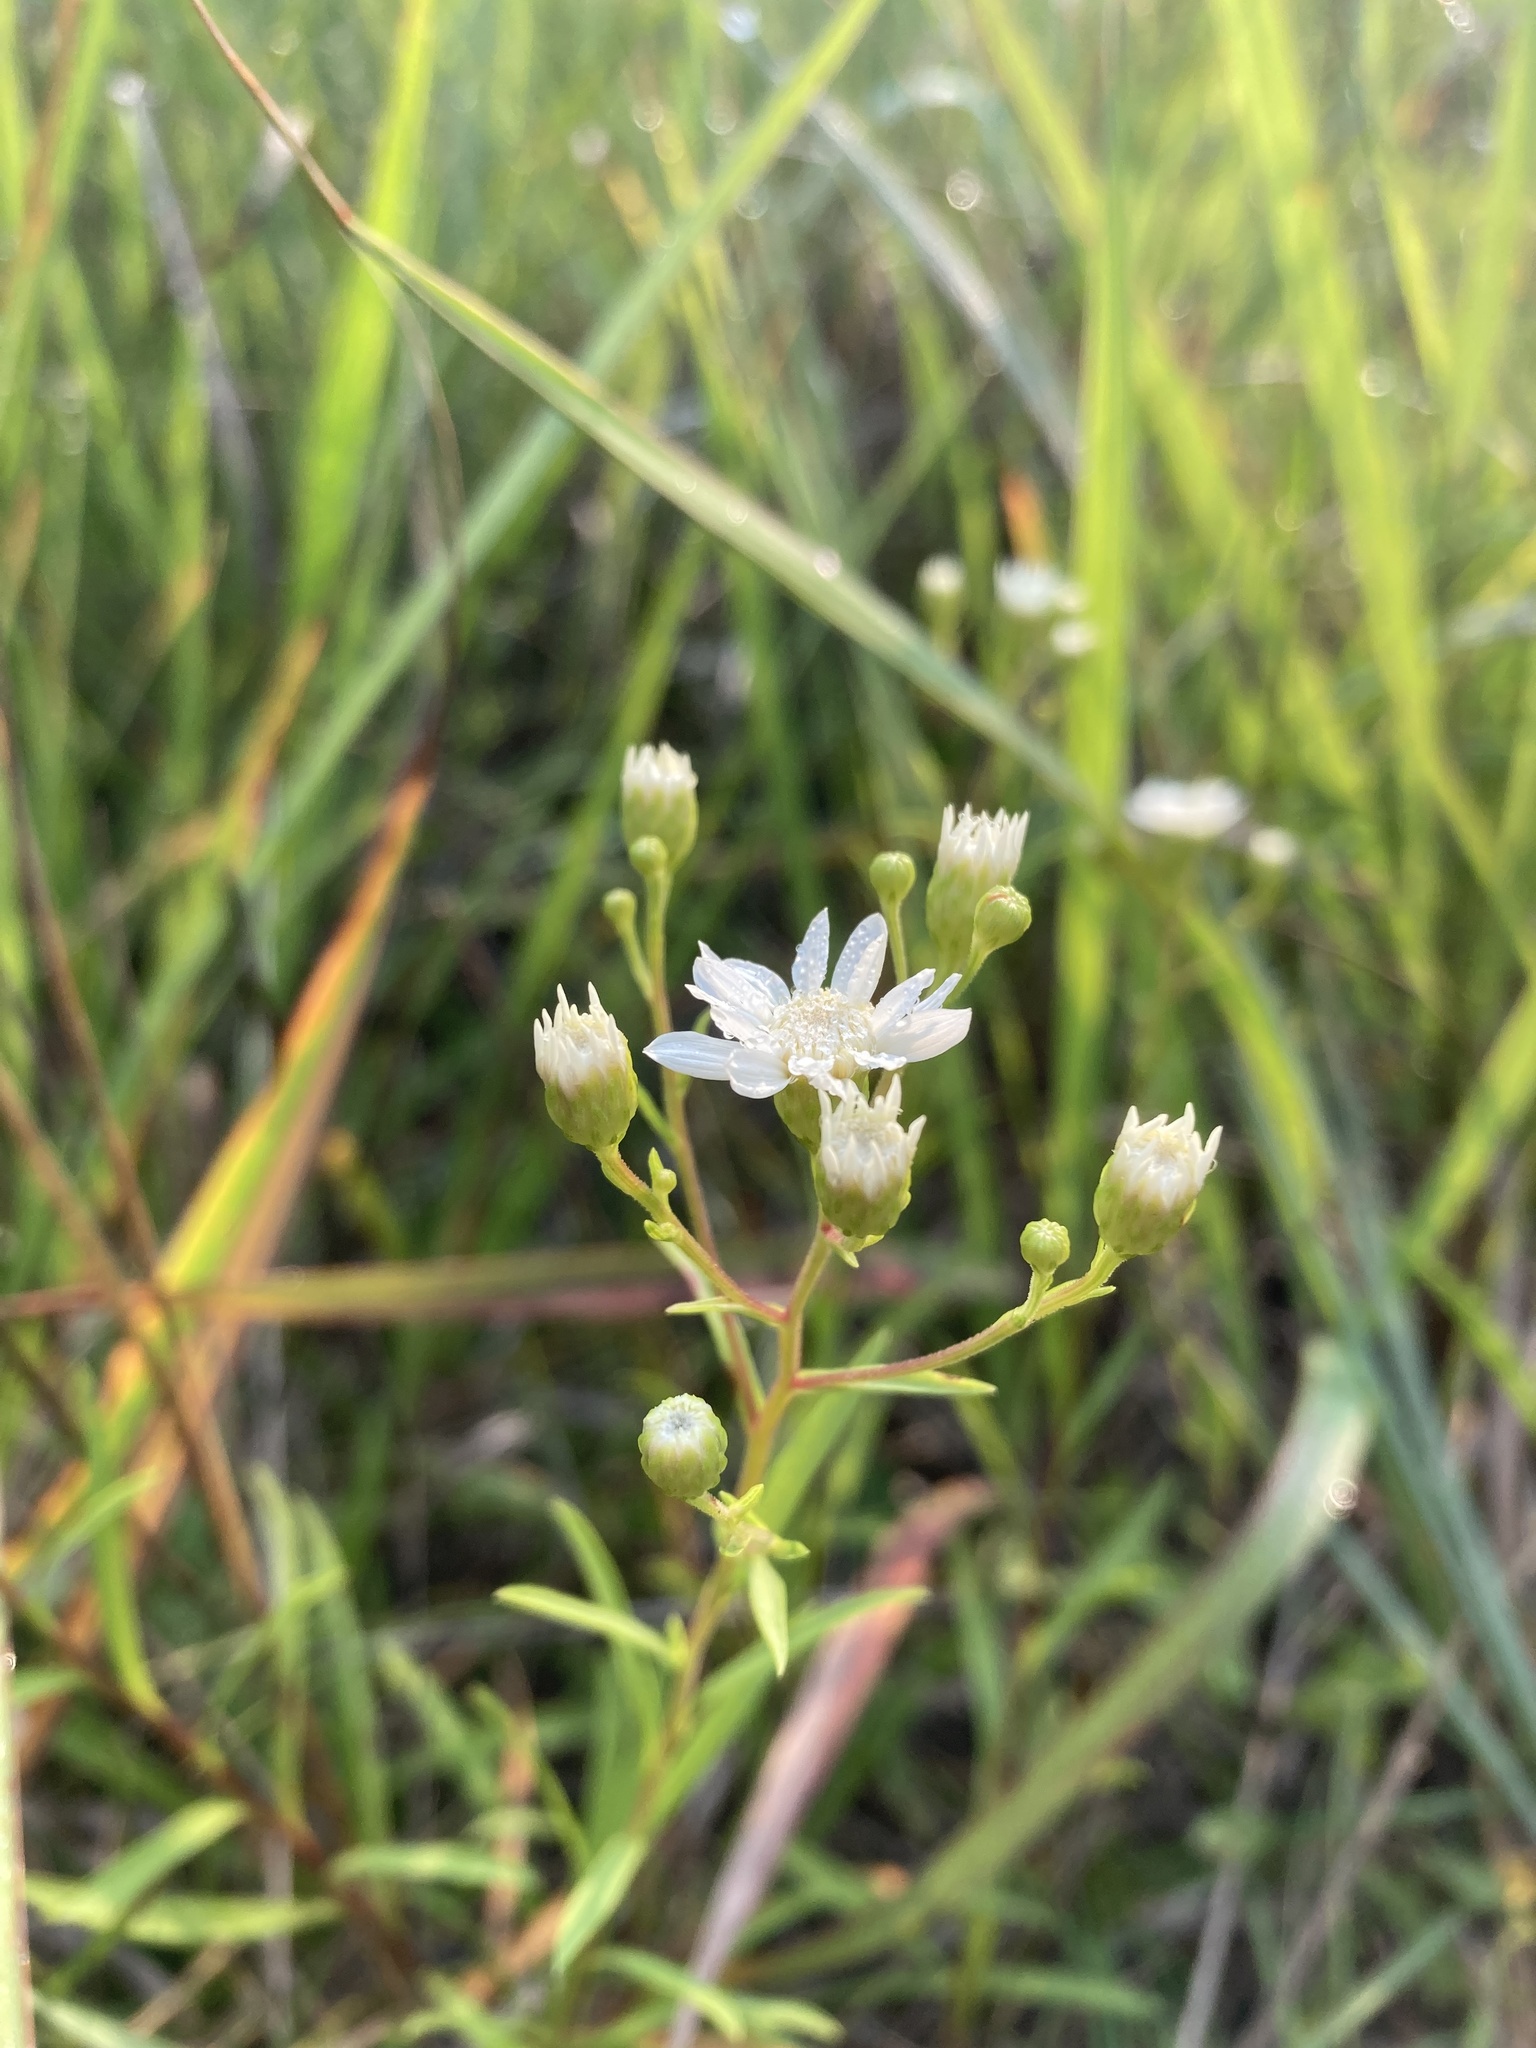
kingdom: Plantae
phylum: Tracheophyta
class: Magnoliopsida
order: Asterales
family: Asteraceae
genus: Solidago
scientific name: Solidago ptarmicoides
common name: White flat-top goldenrod
